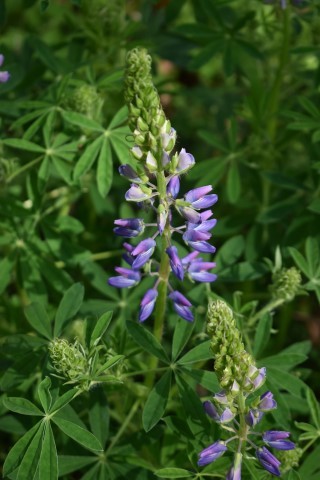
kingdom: Plantae
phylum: Tracheophyta
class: Magnoliopsida
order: Fabales
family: Fabaceae
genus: Lupinus
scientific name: Lupinus rivularis
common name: Riverbank lupine
